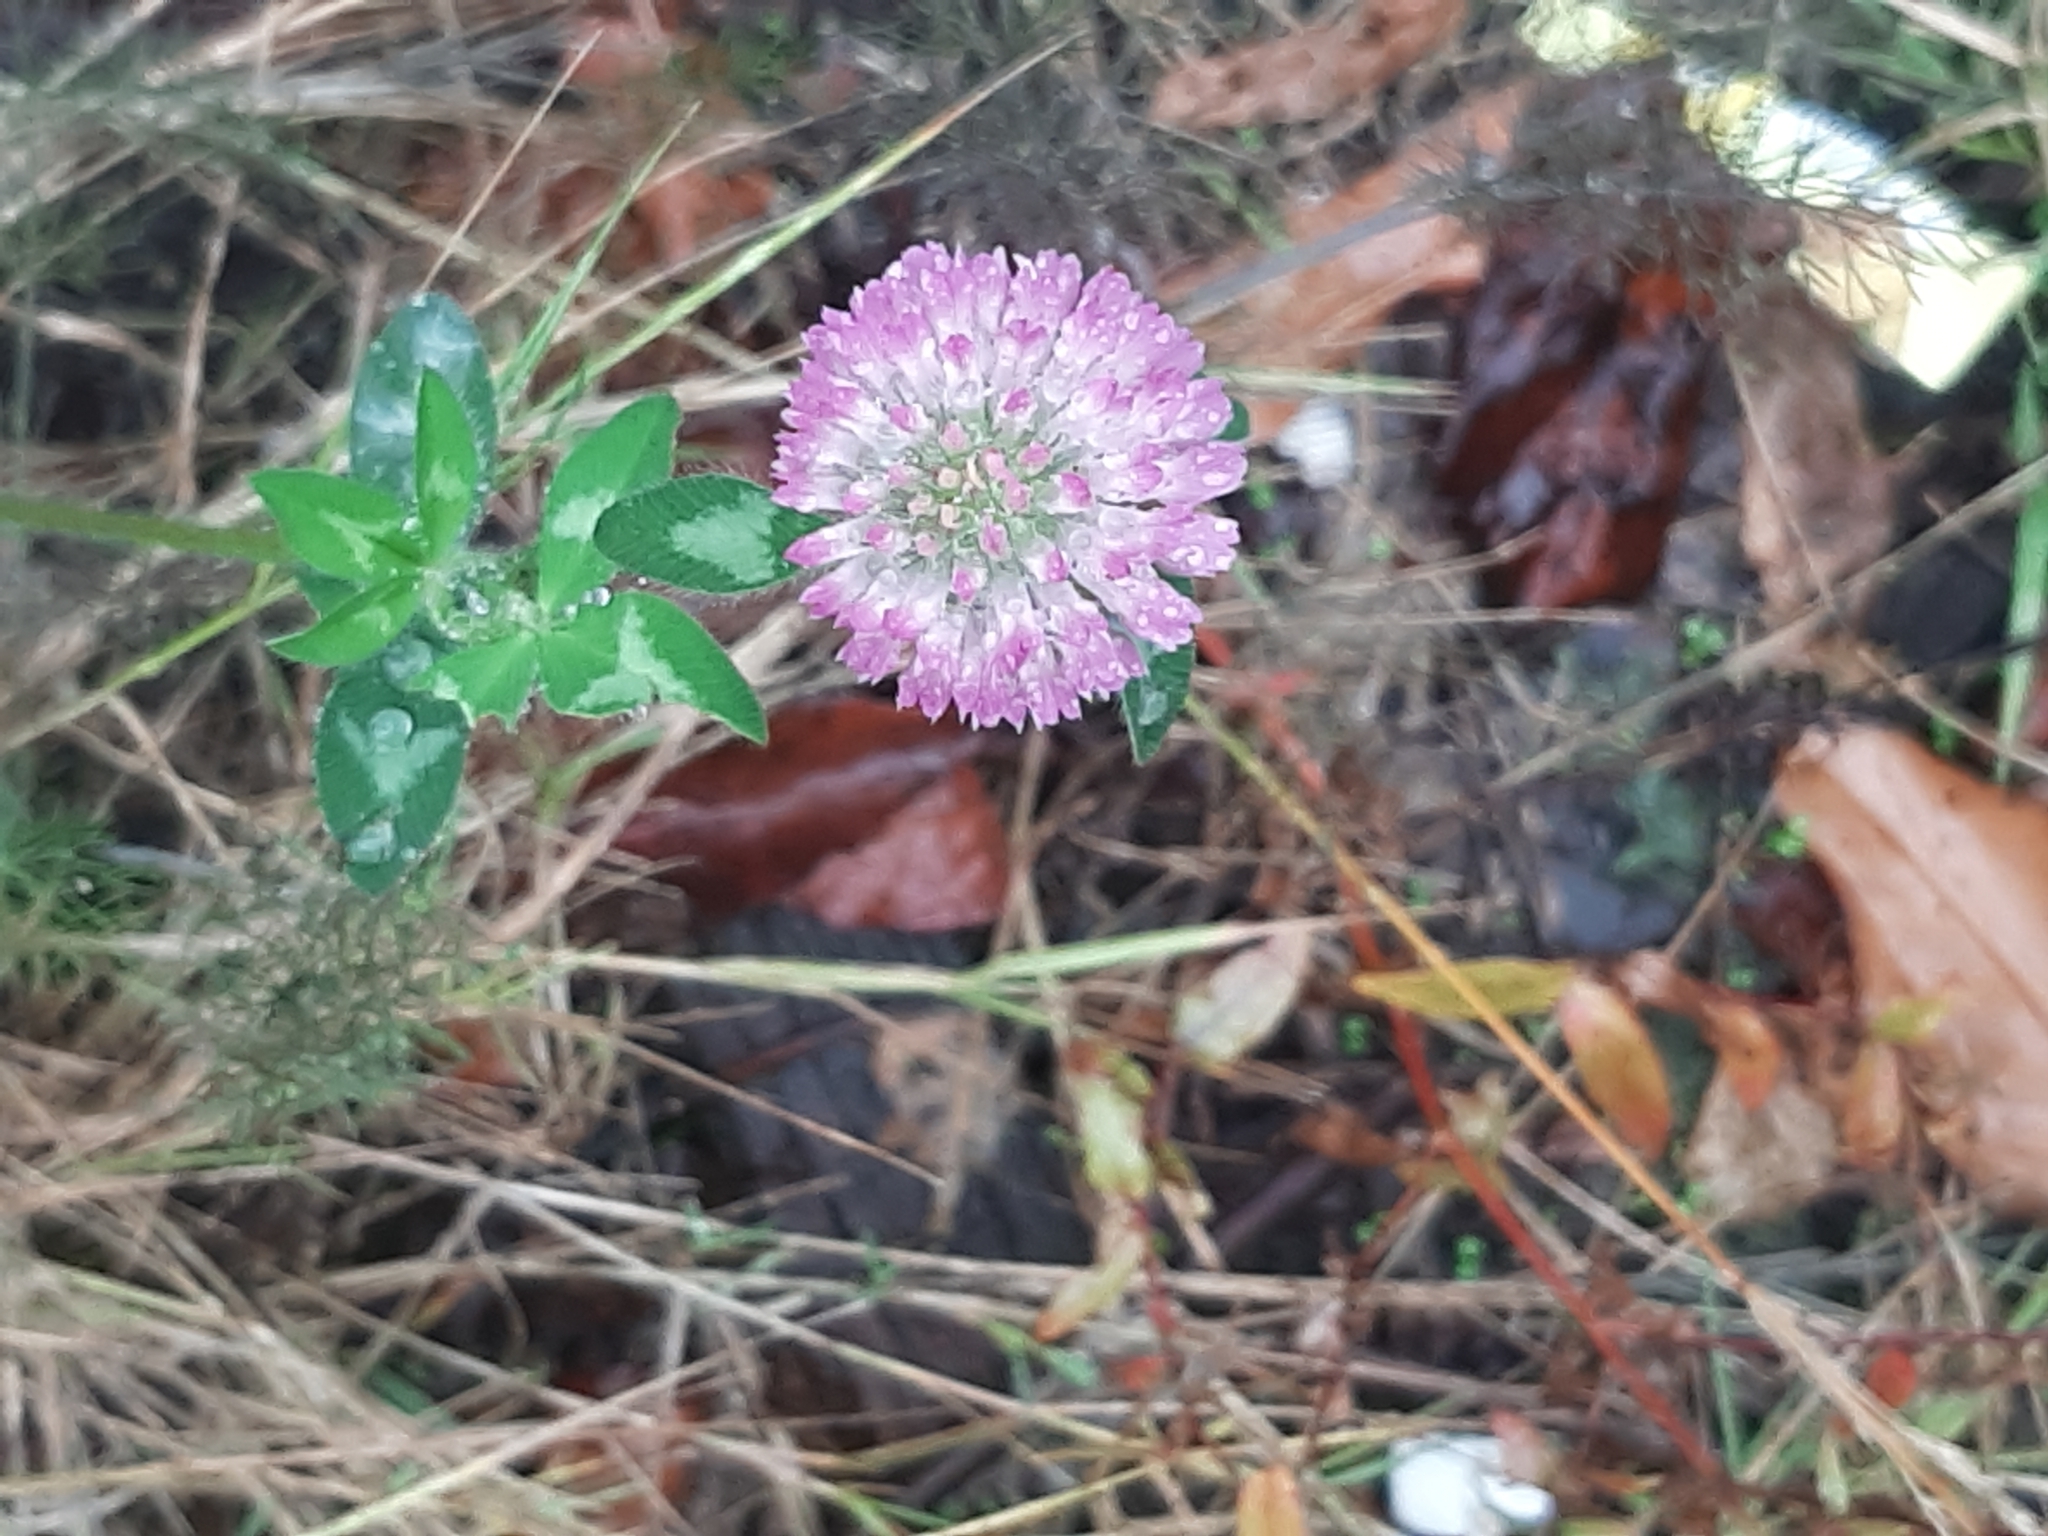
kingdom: Plantae
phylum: Tracheophyta
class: Magnoliopsida
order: Fabales
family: Fabaceae
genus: Trifolium
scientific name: Trifolium pratense
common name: Red clover
